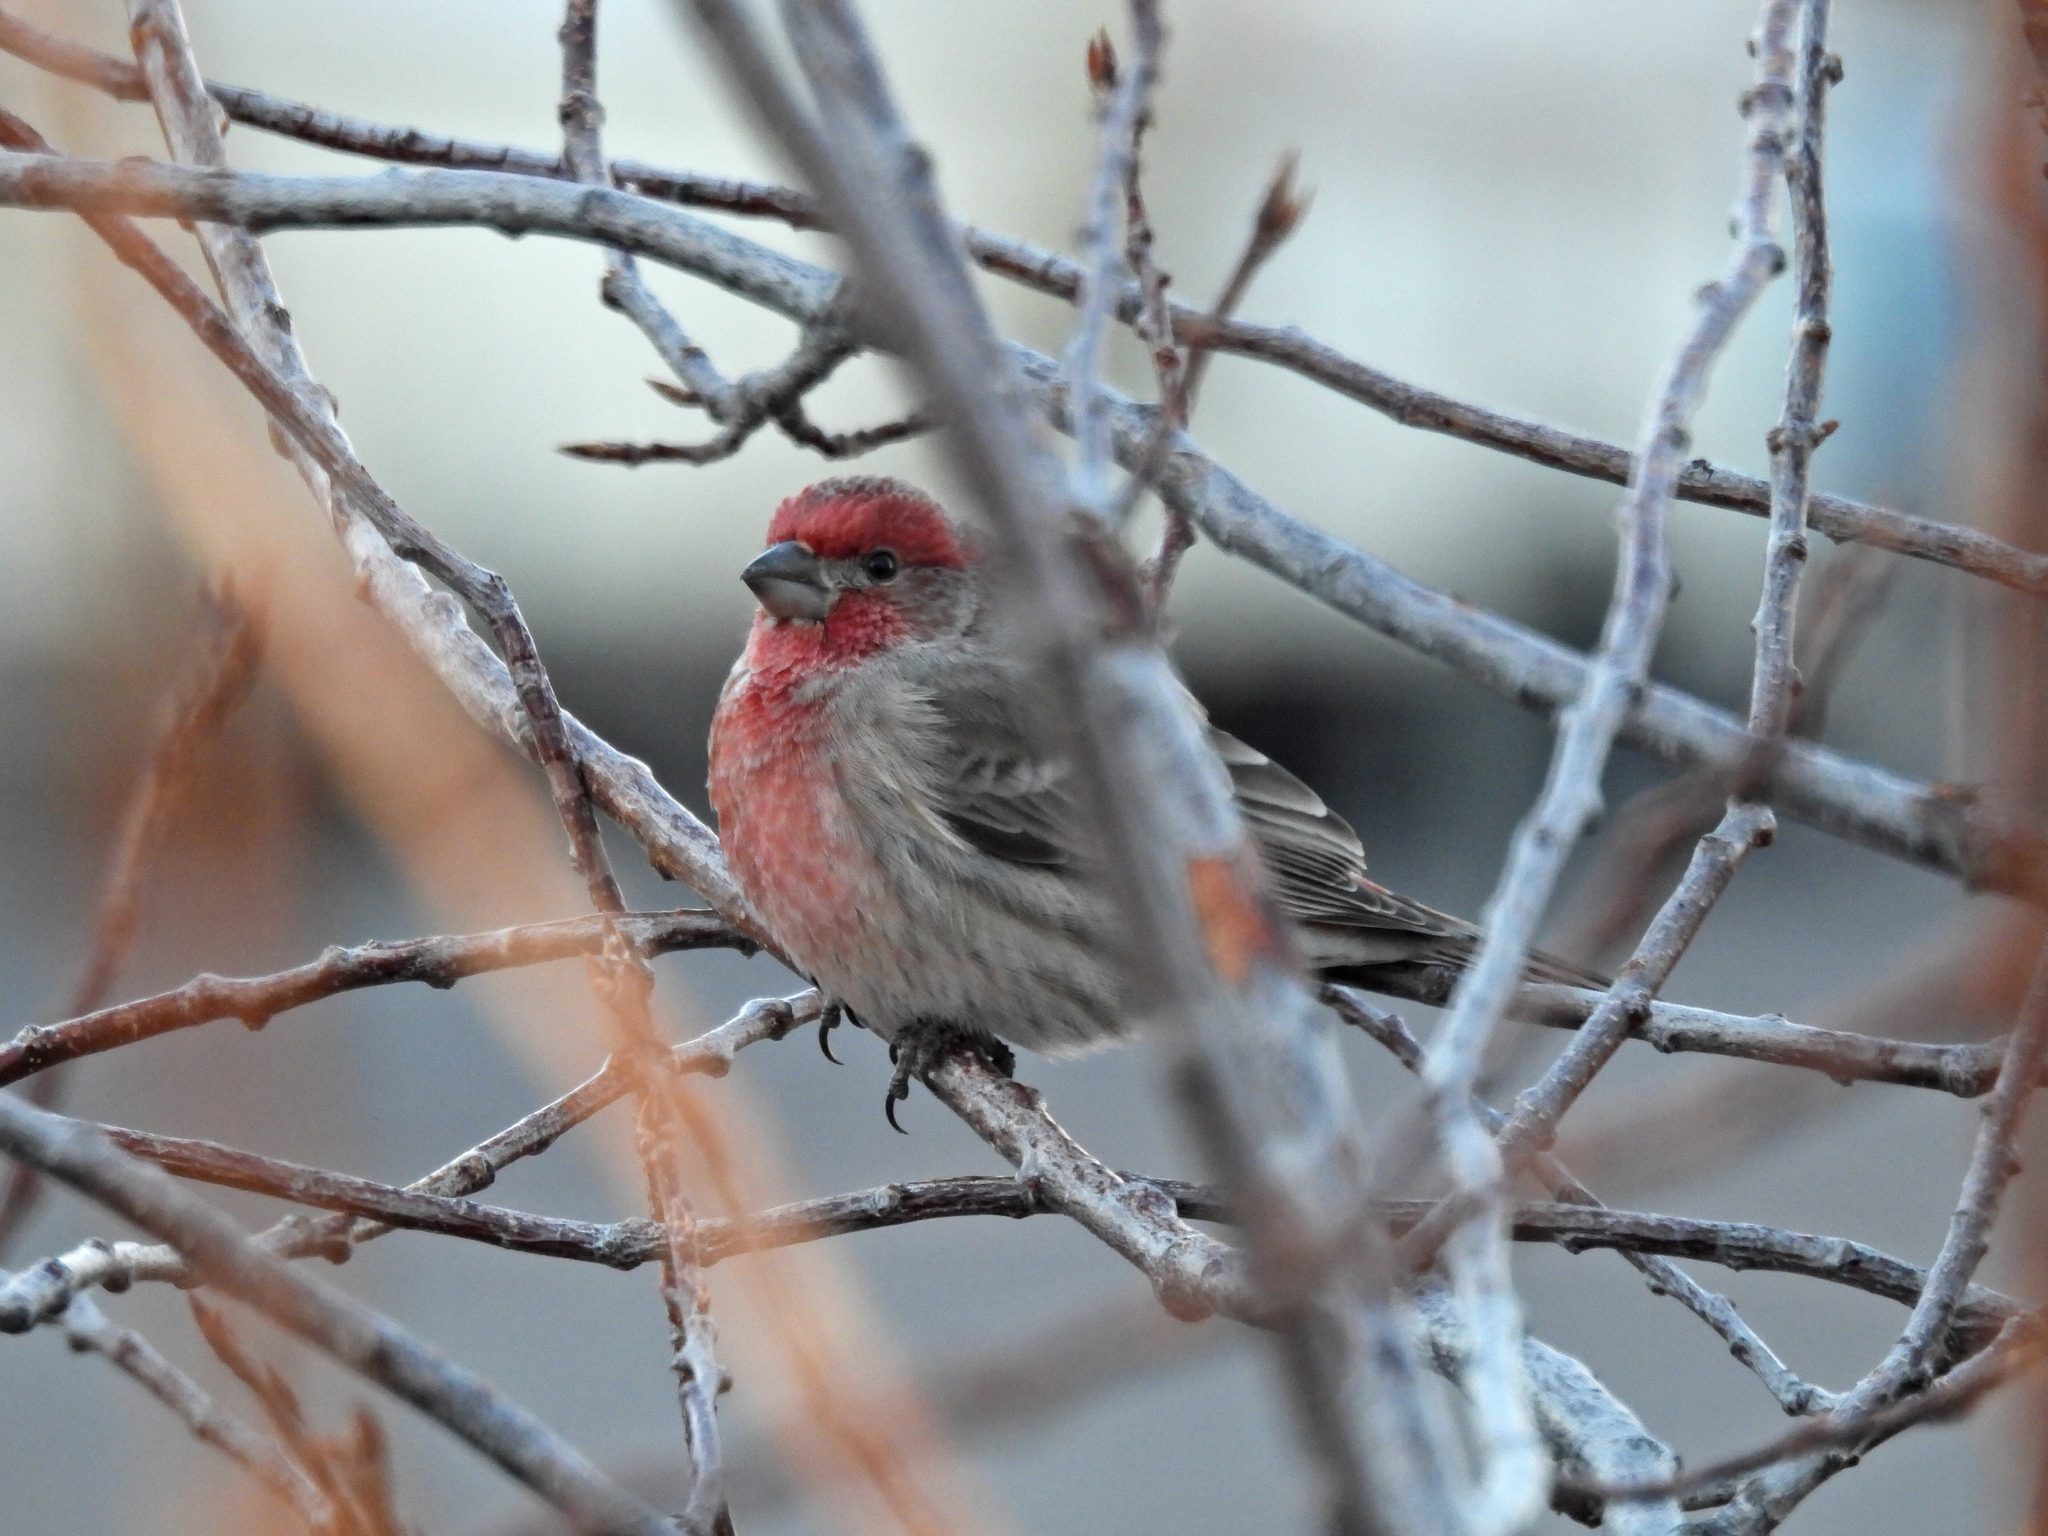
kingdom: Animalia
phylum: Chordata
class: Aves
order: Passeriformes
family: Fringillidae
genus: Haemorhous
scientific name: Haemorhous mexicanus
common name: House finch
